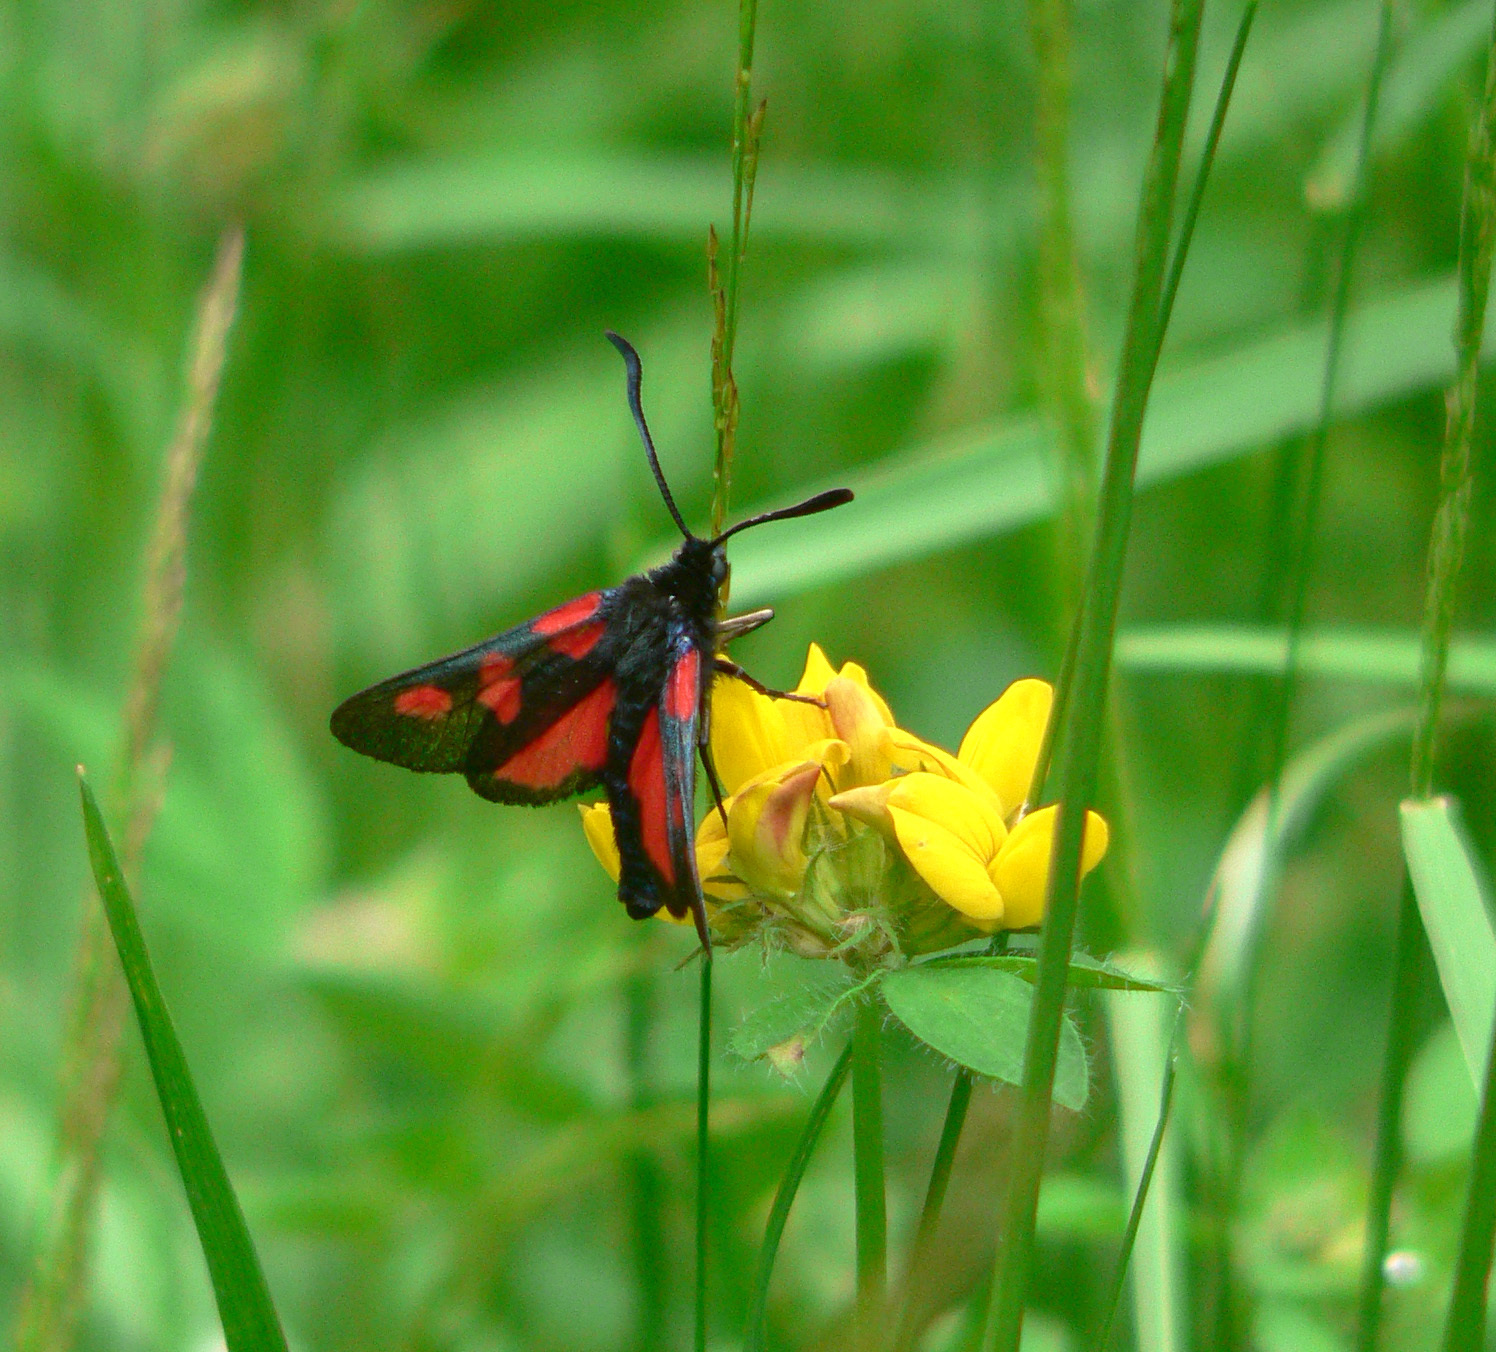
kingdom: Animalia
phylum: Arthropoda
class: Insecta
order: Lepidoptera
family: Zygaenidae
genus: Zygaena
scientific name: Zygaena trifolii
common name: Five-spot burnet
